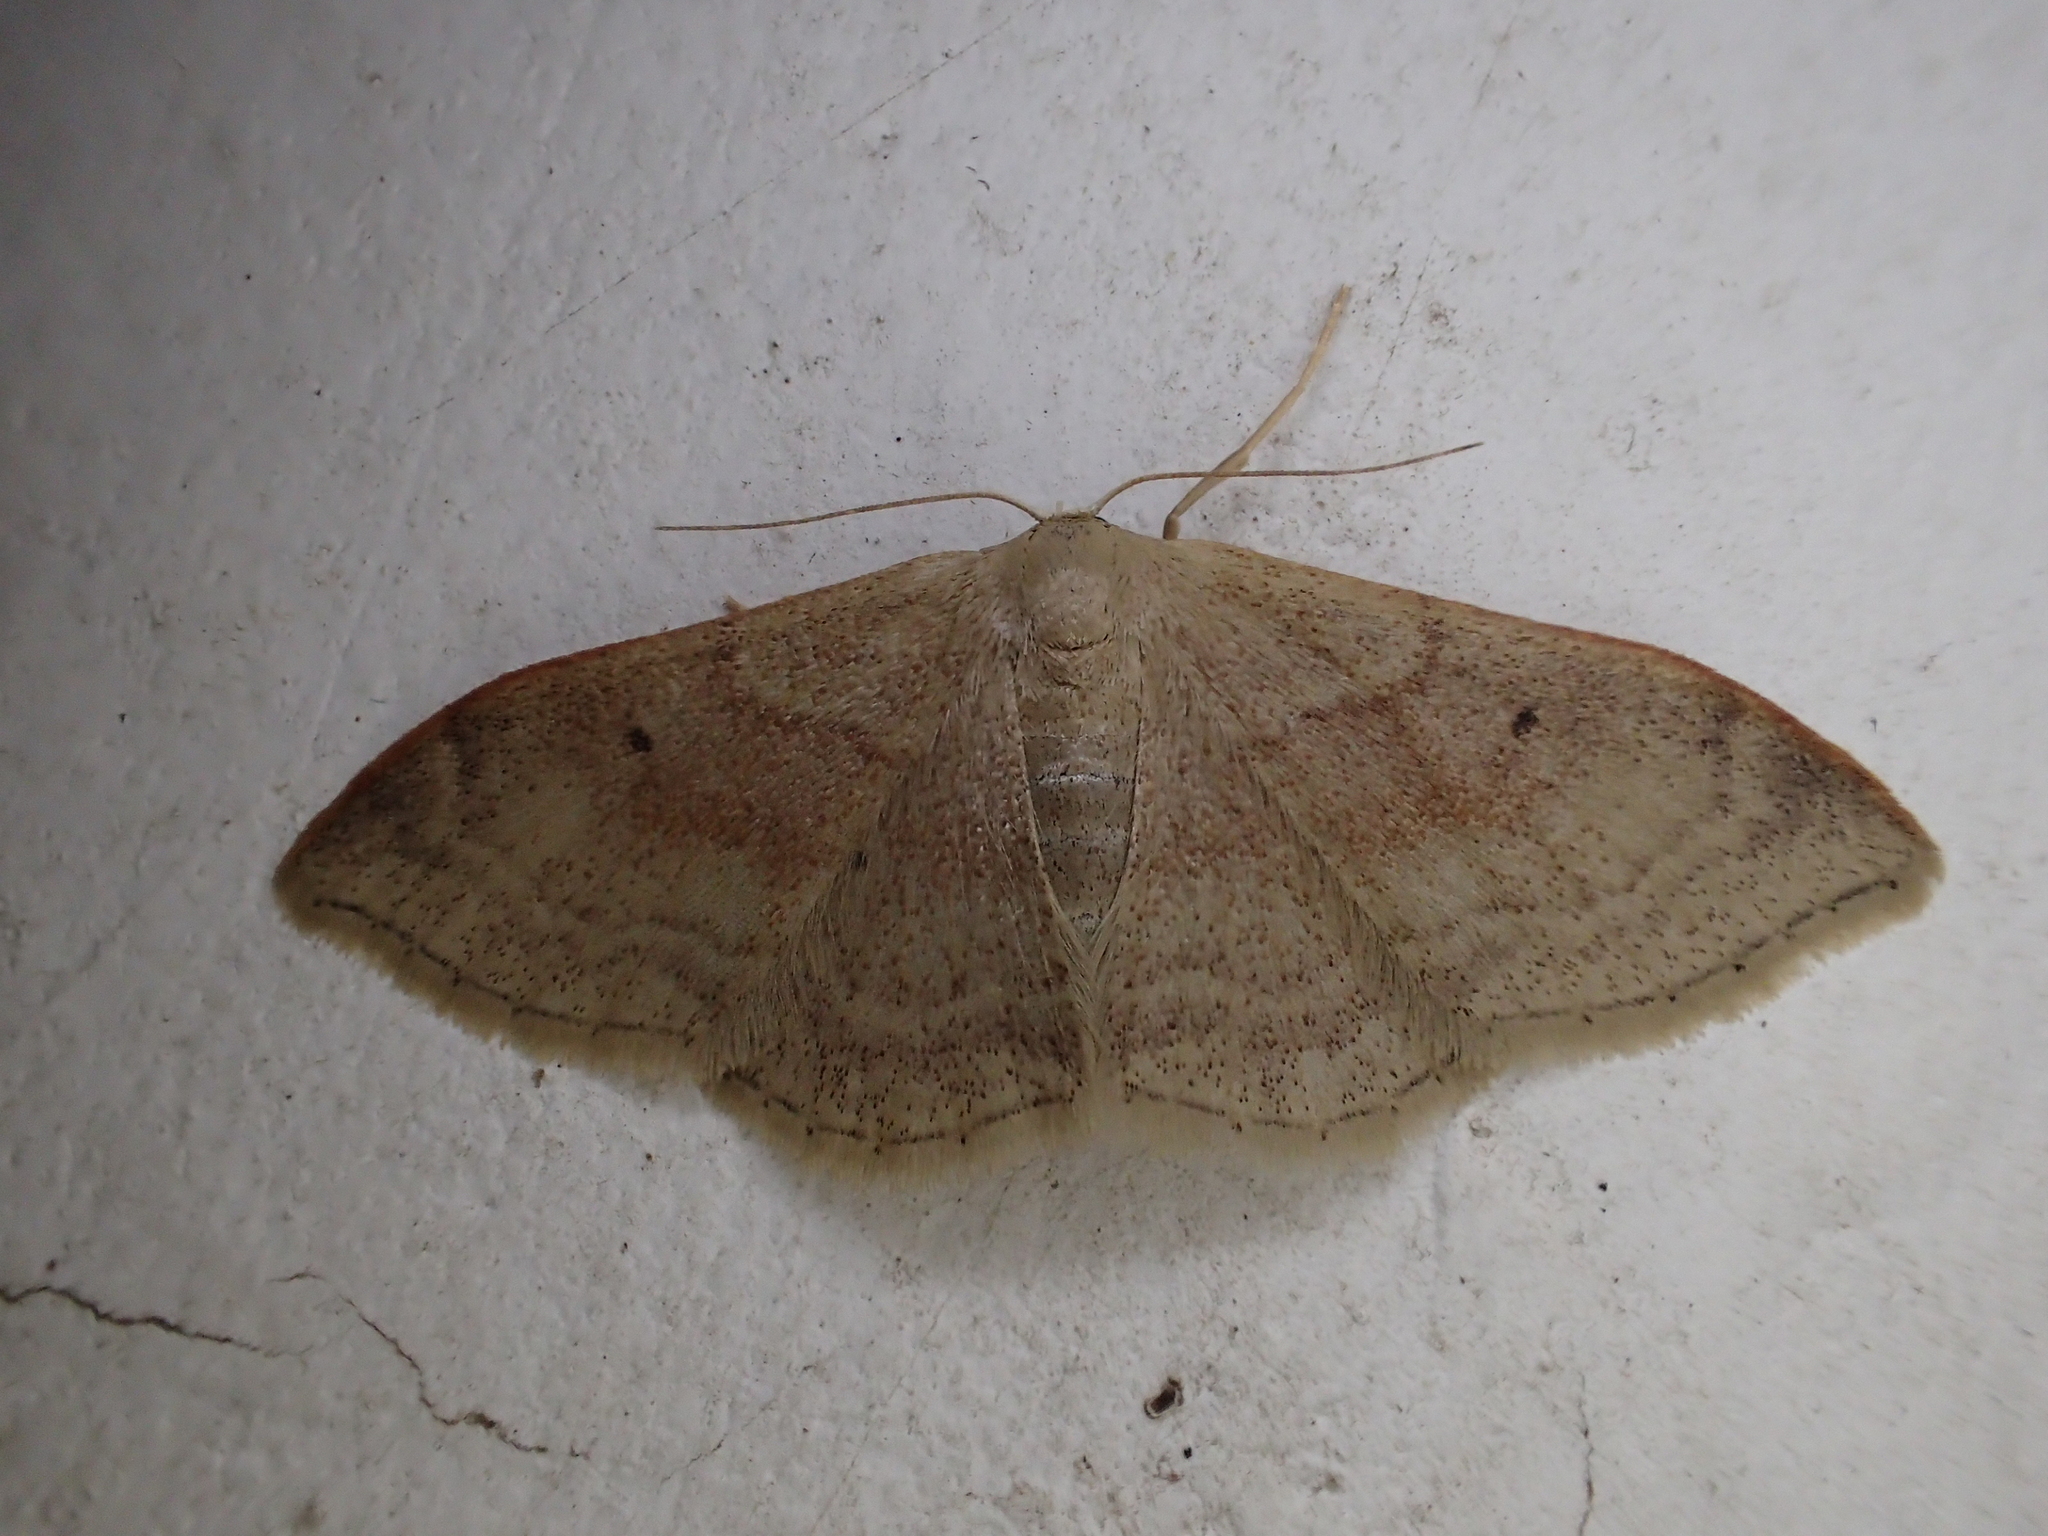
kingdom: Animalia
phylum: Arthropoda
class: Insecta
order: Lepidoptera
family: Geometridae
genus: Idaea
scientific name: Idaea degeneraria
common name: Portland ribbon wave
